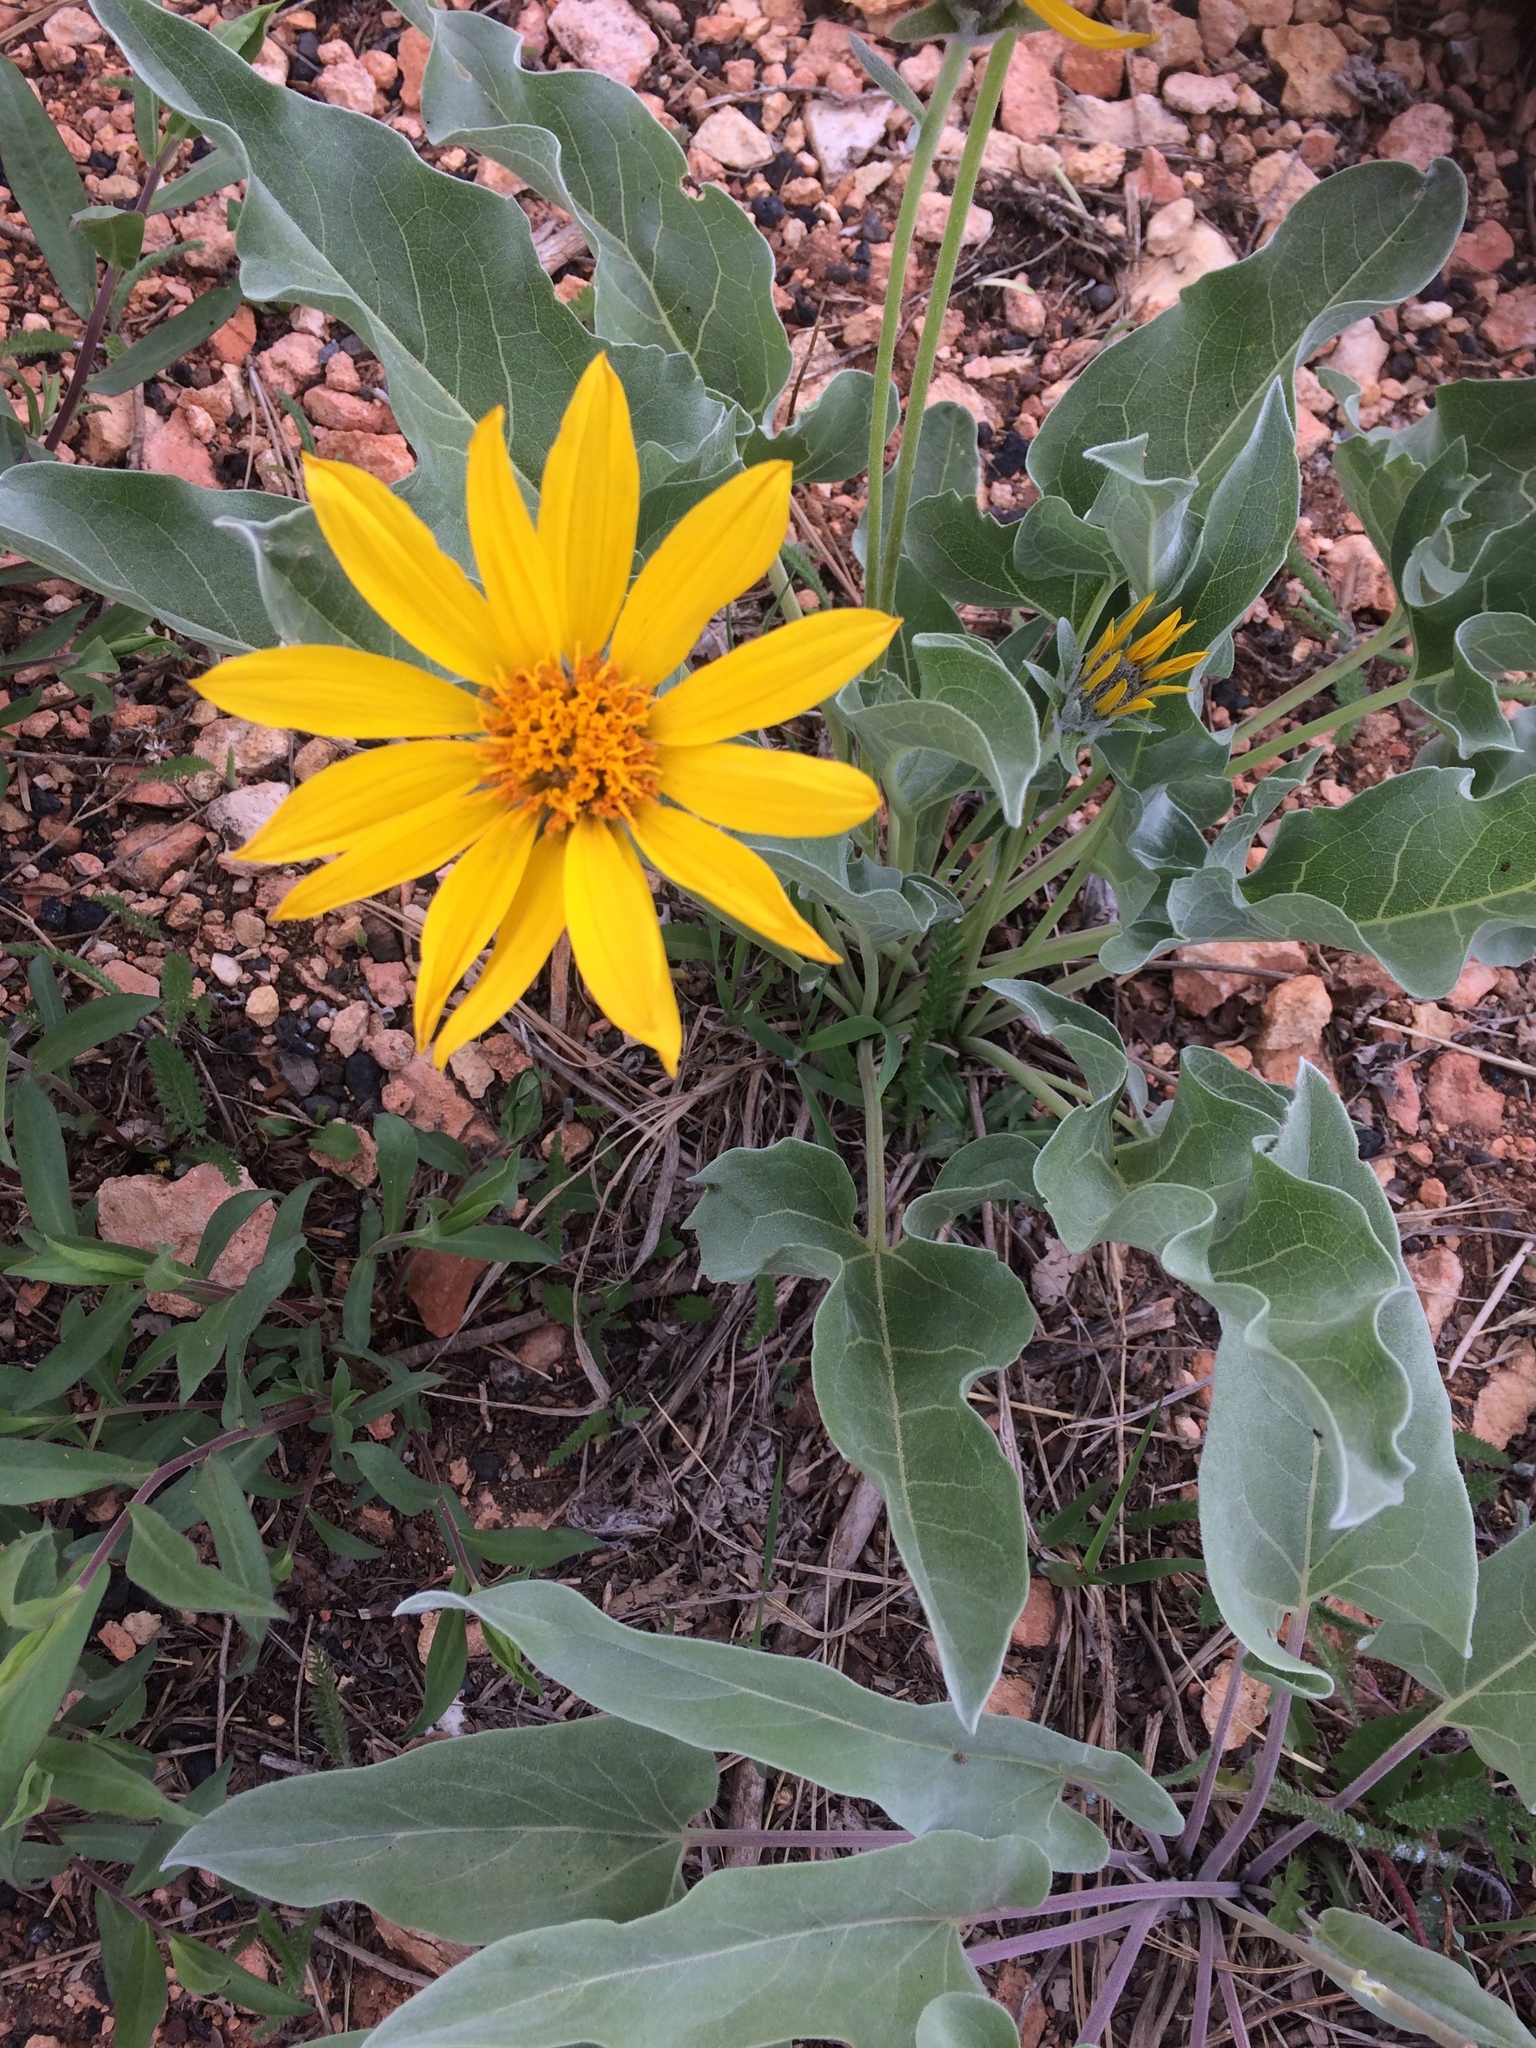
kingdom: Plantae
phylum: Tracheophyta
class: Magnoliopsida
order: Asterales
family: Asteraceae
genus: Wyethia
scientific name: Wyethia sagittata
